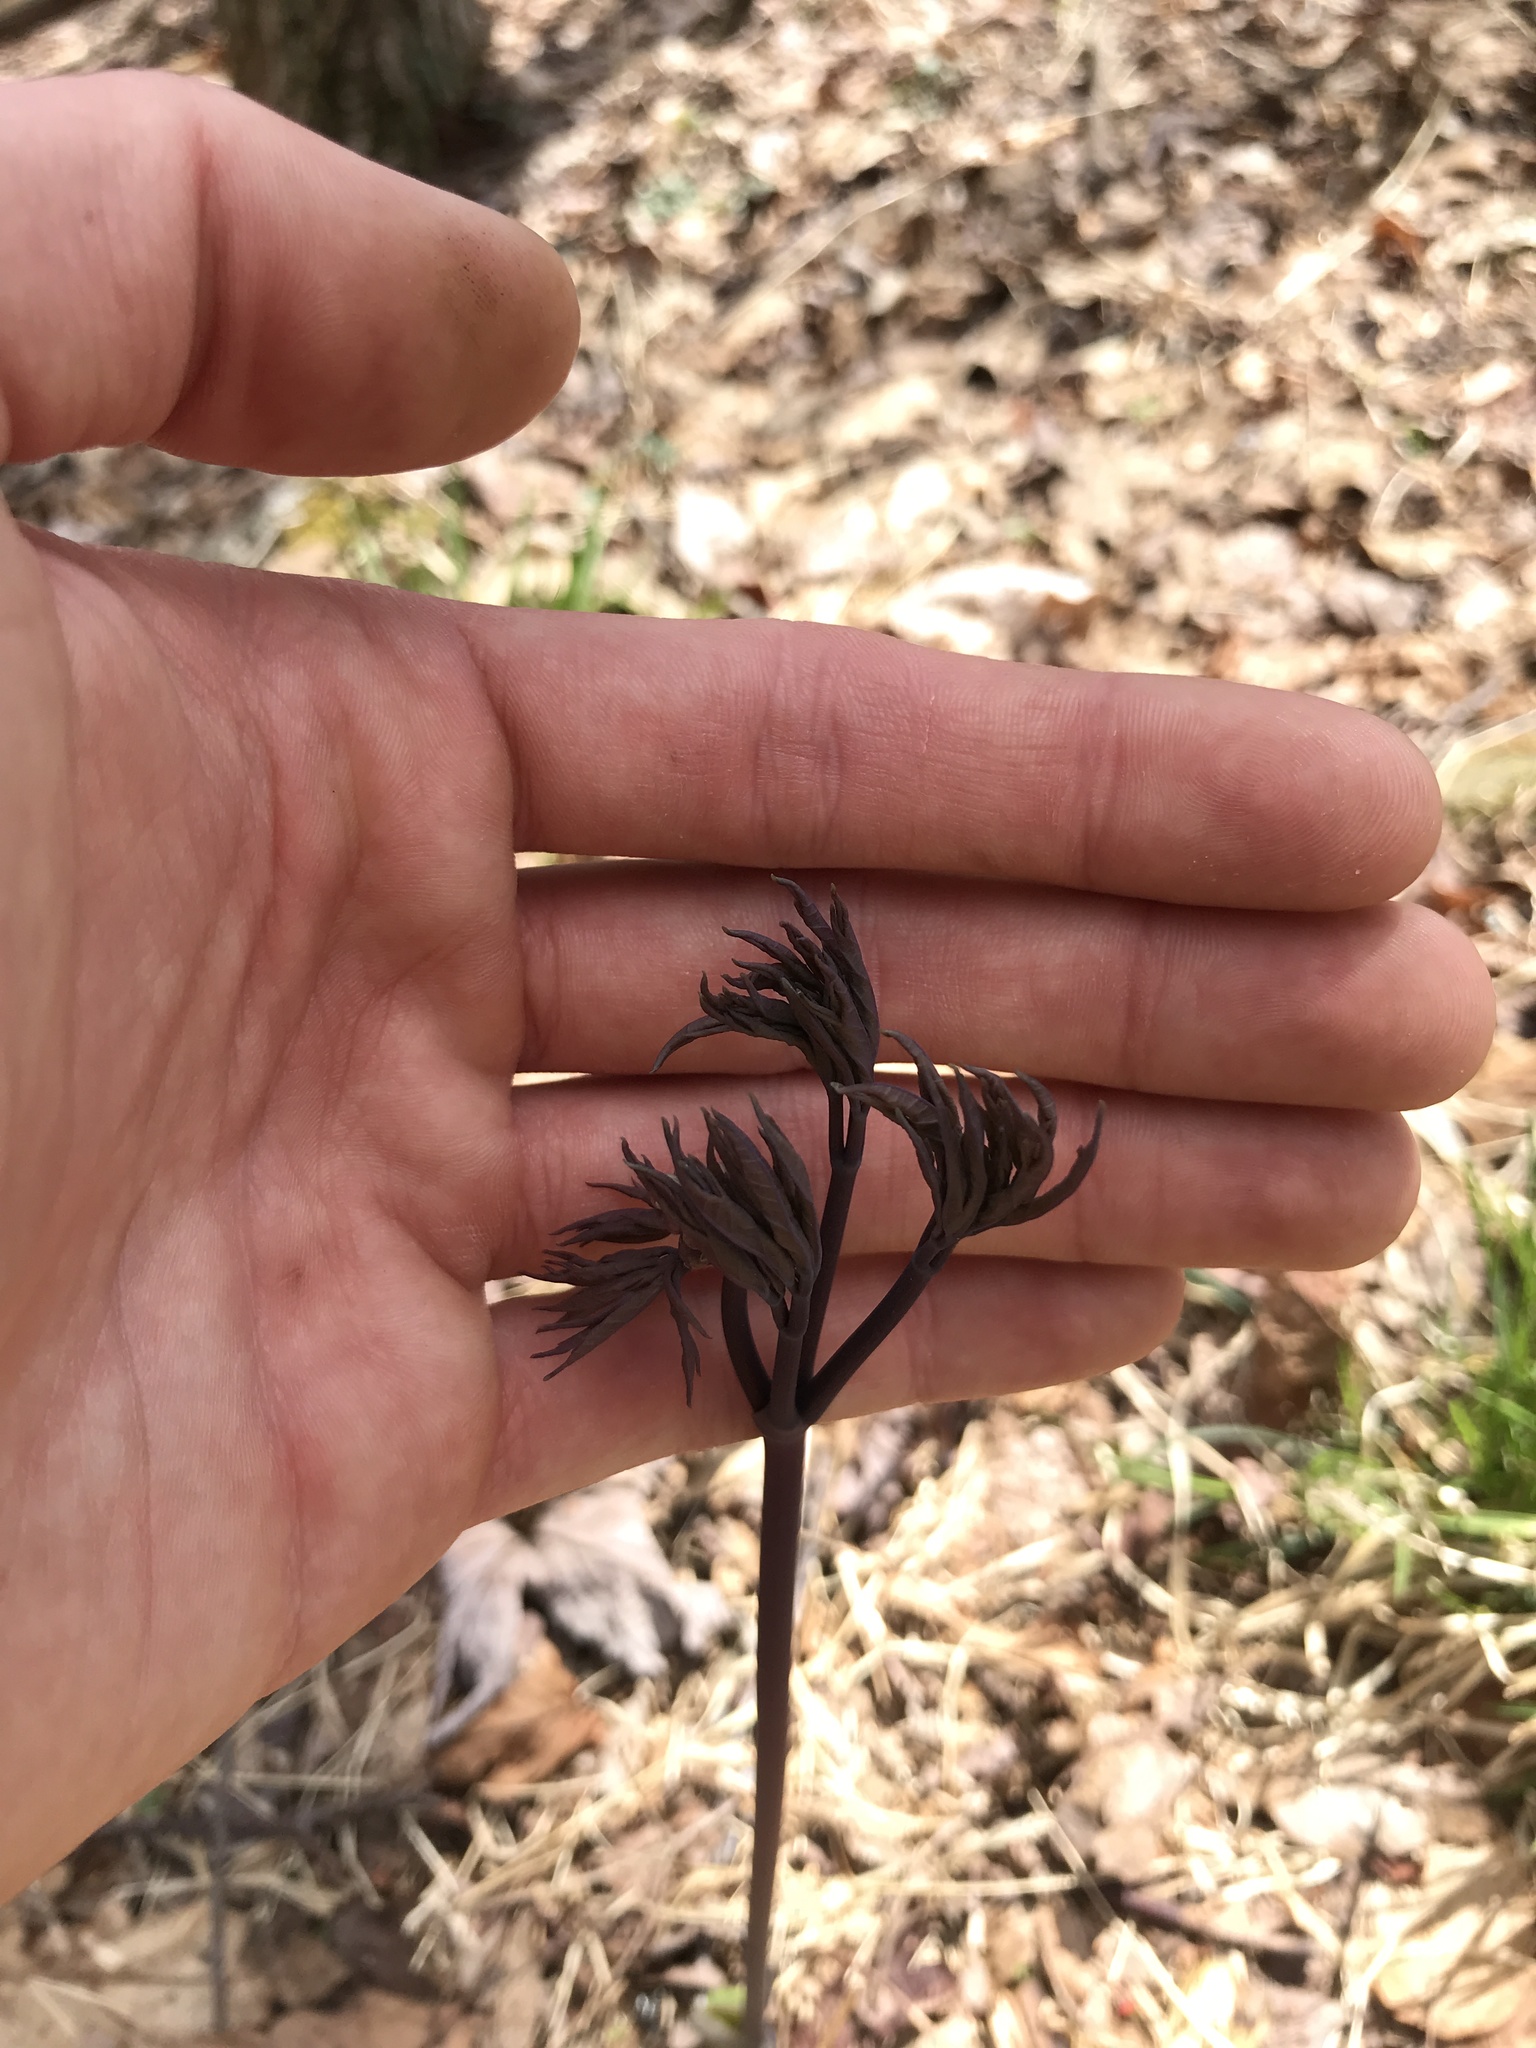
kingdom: Plantae
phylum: Tracheophyta
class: Magnoliopsida
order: Ranunculales
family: Berberidaceae
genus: Caulophyllum
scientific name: Caulophyllum giganteum
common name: Blue cohosh
